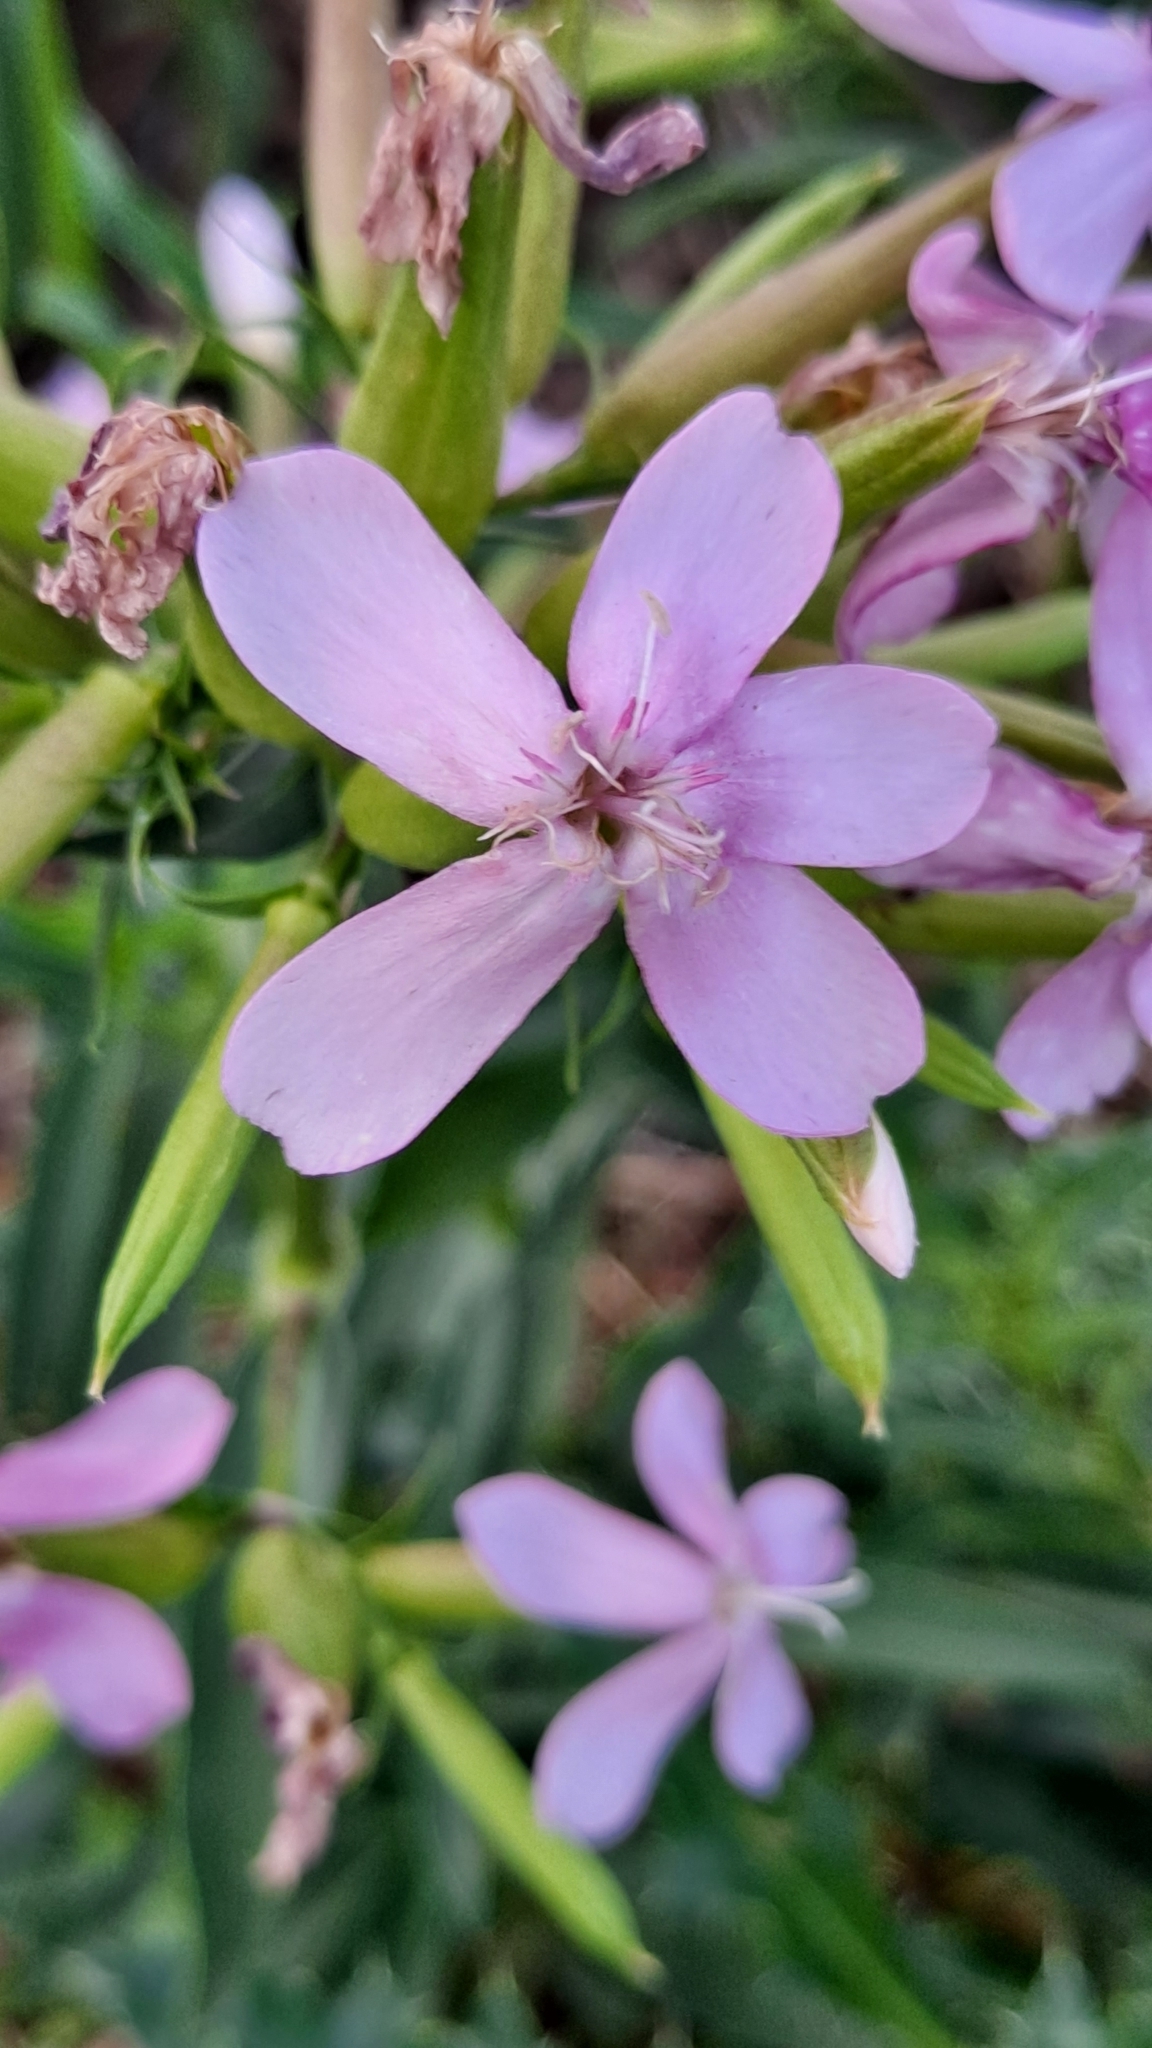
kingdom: Plantae
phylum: Tracheophyta
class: Magnoliopsida
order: Caryophyllales
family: Caryophyllaceae
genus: Saponaria
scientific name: Saponaria officinalis
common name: Soapwort
